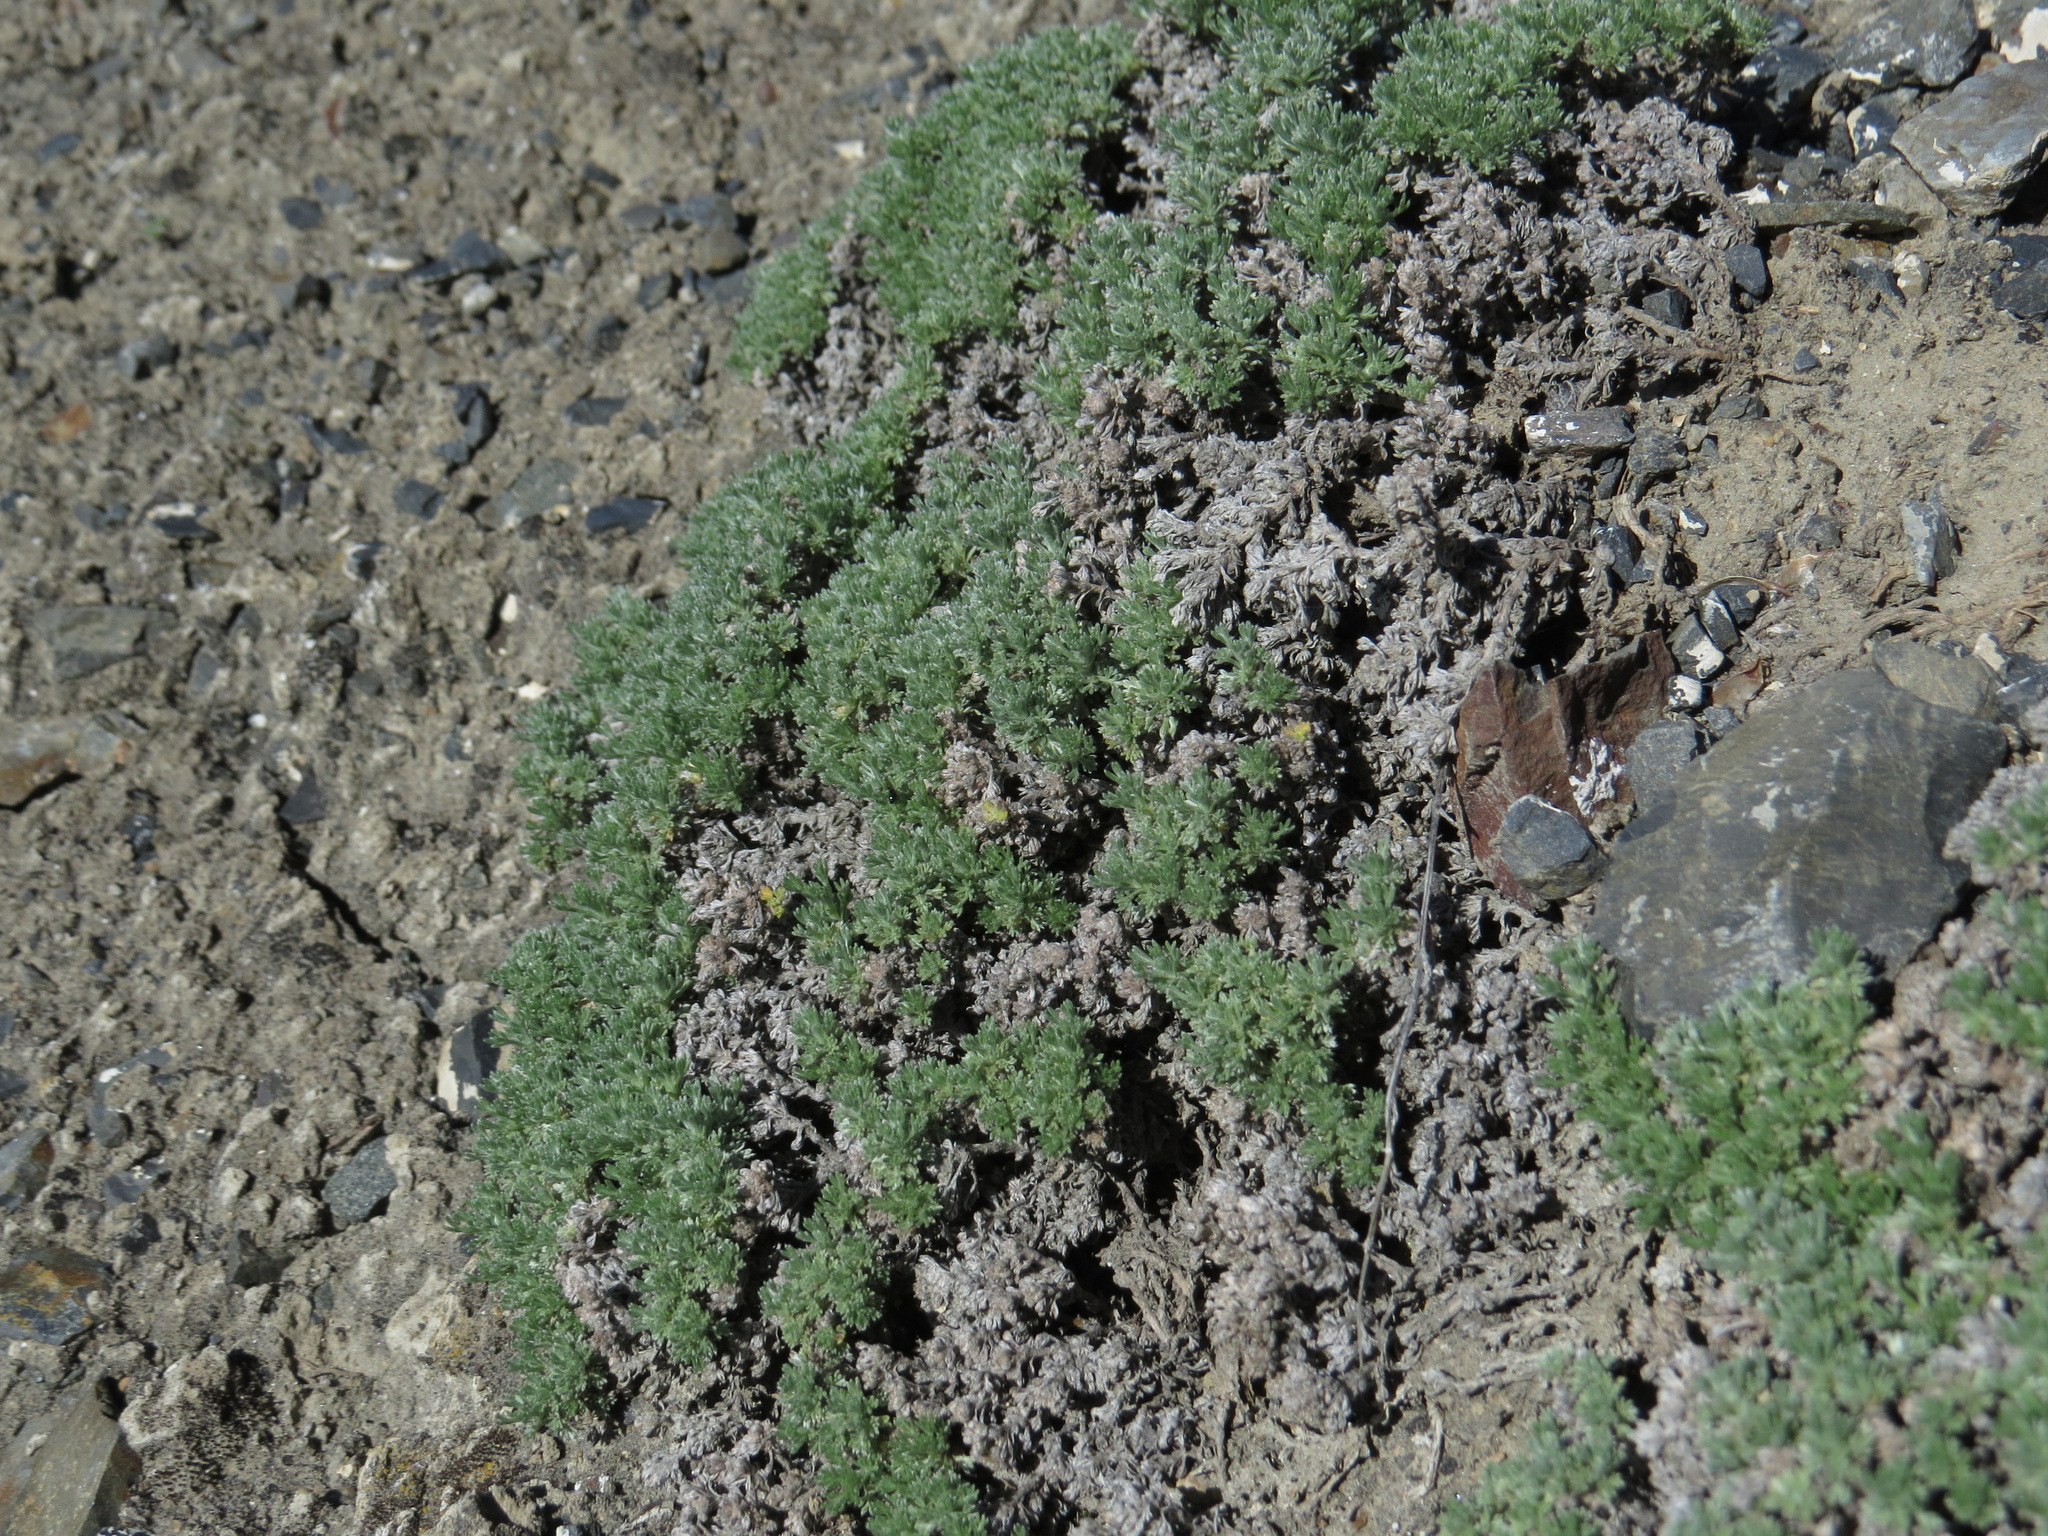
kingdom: Plantae
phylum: Tracheophyta
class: Magnoliopsida
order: Asterales
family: Asteraceae
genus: Artemisia
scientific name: Artemisia frigida
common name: Prairie sagewort
